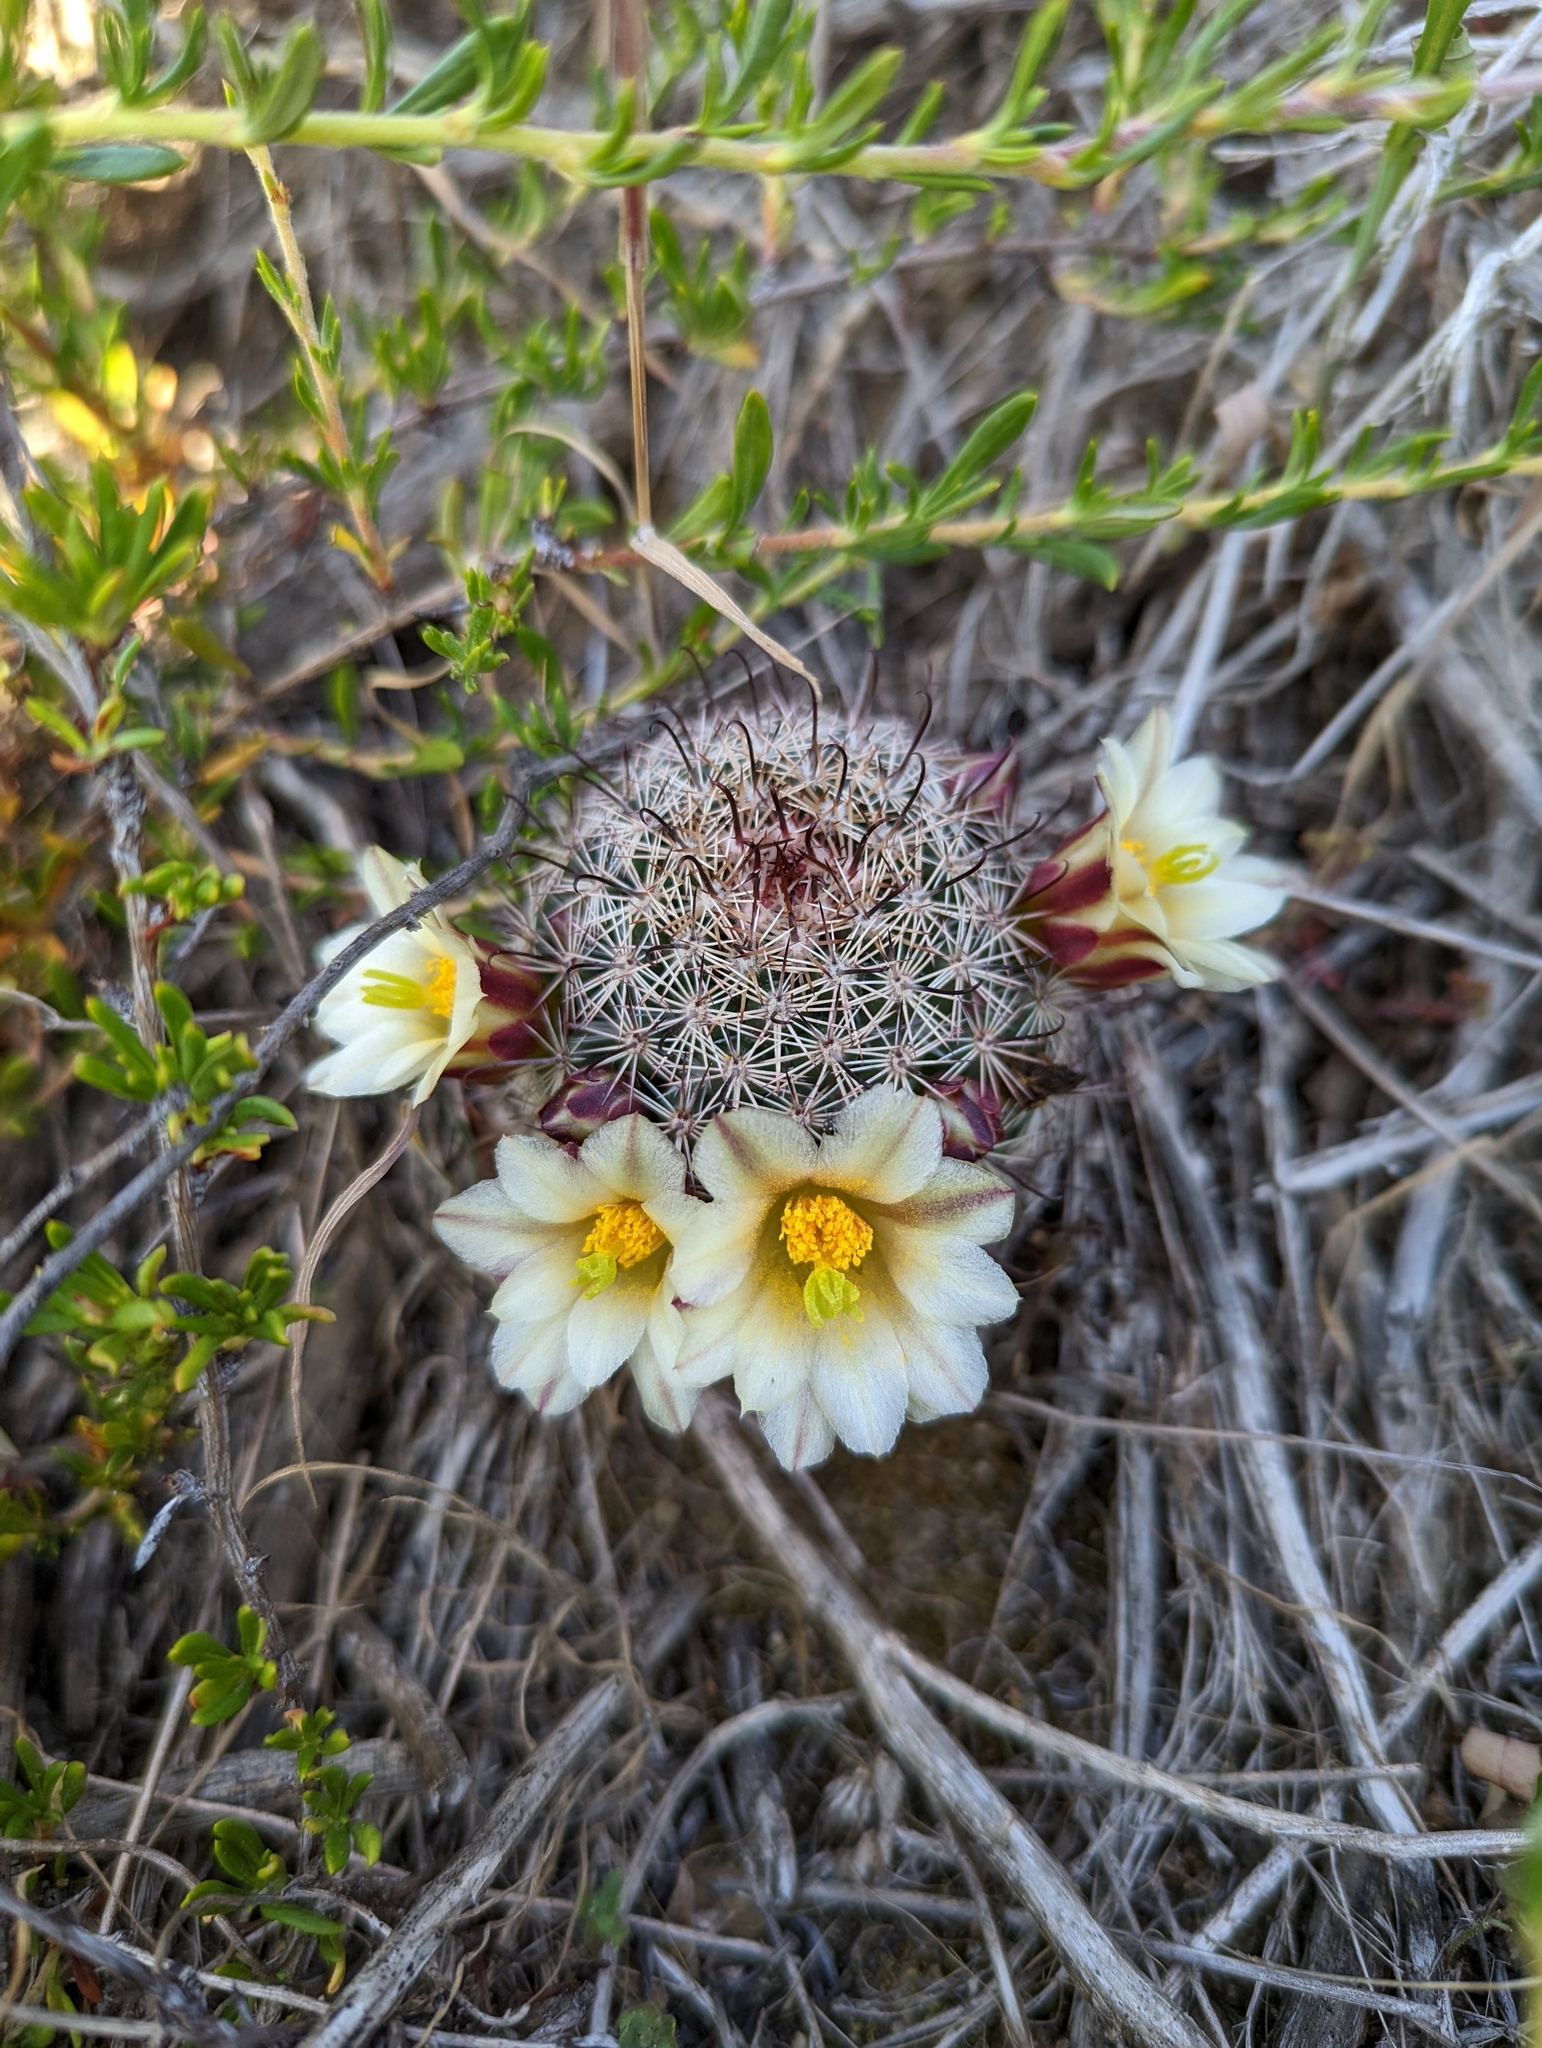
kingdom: Plantae
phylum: Tracheophyta
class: Magnoliopsida
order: Caryophyllales
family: Cactaceae
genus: Cochemiea
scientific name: Cochemiea dioica
